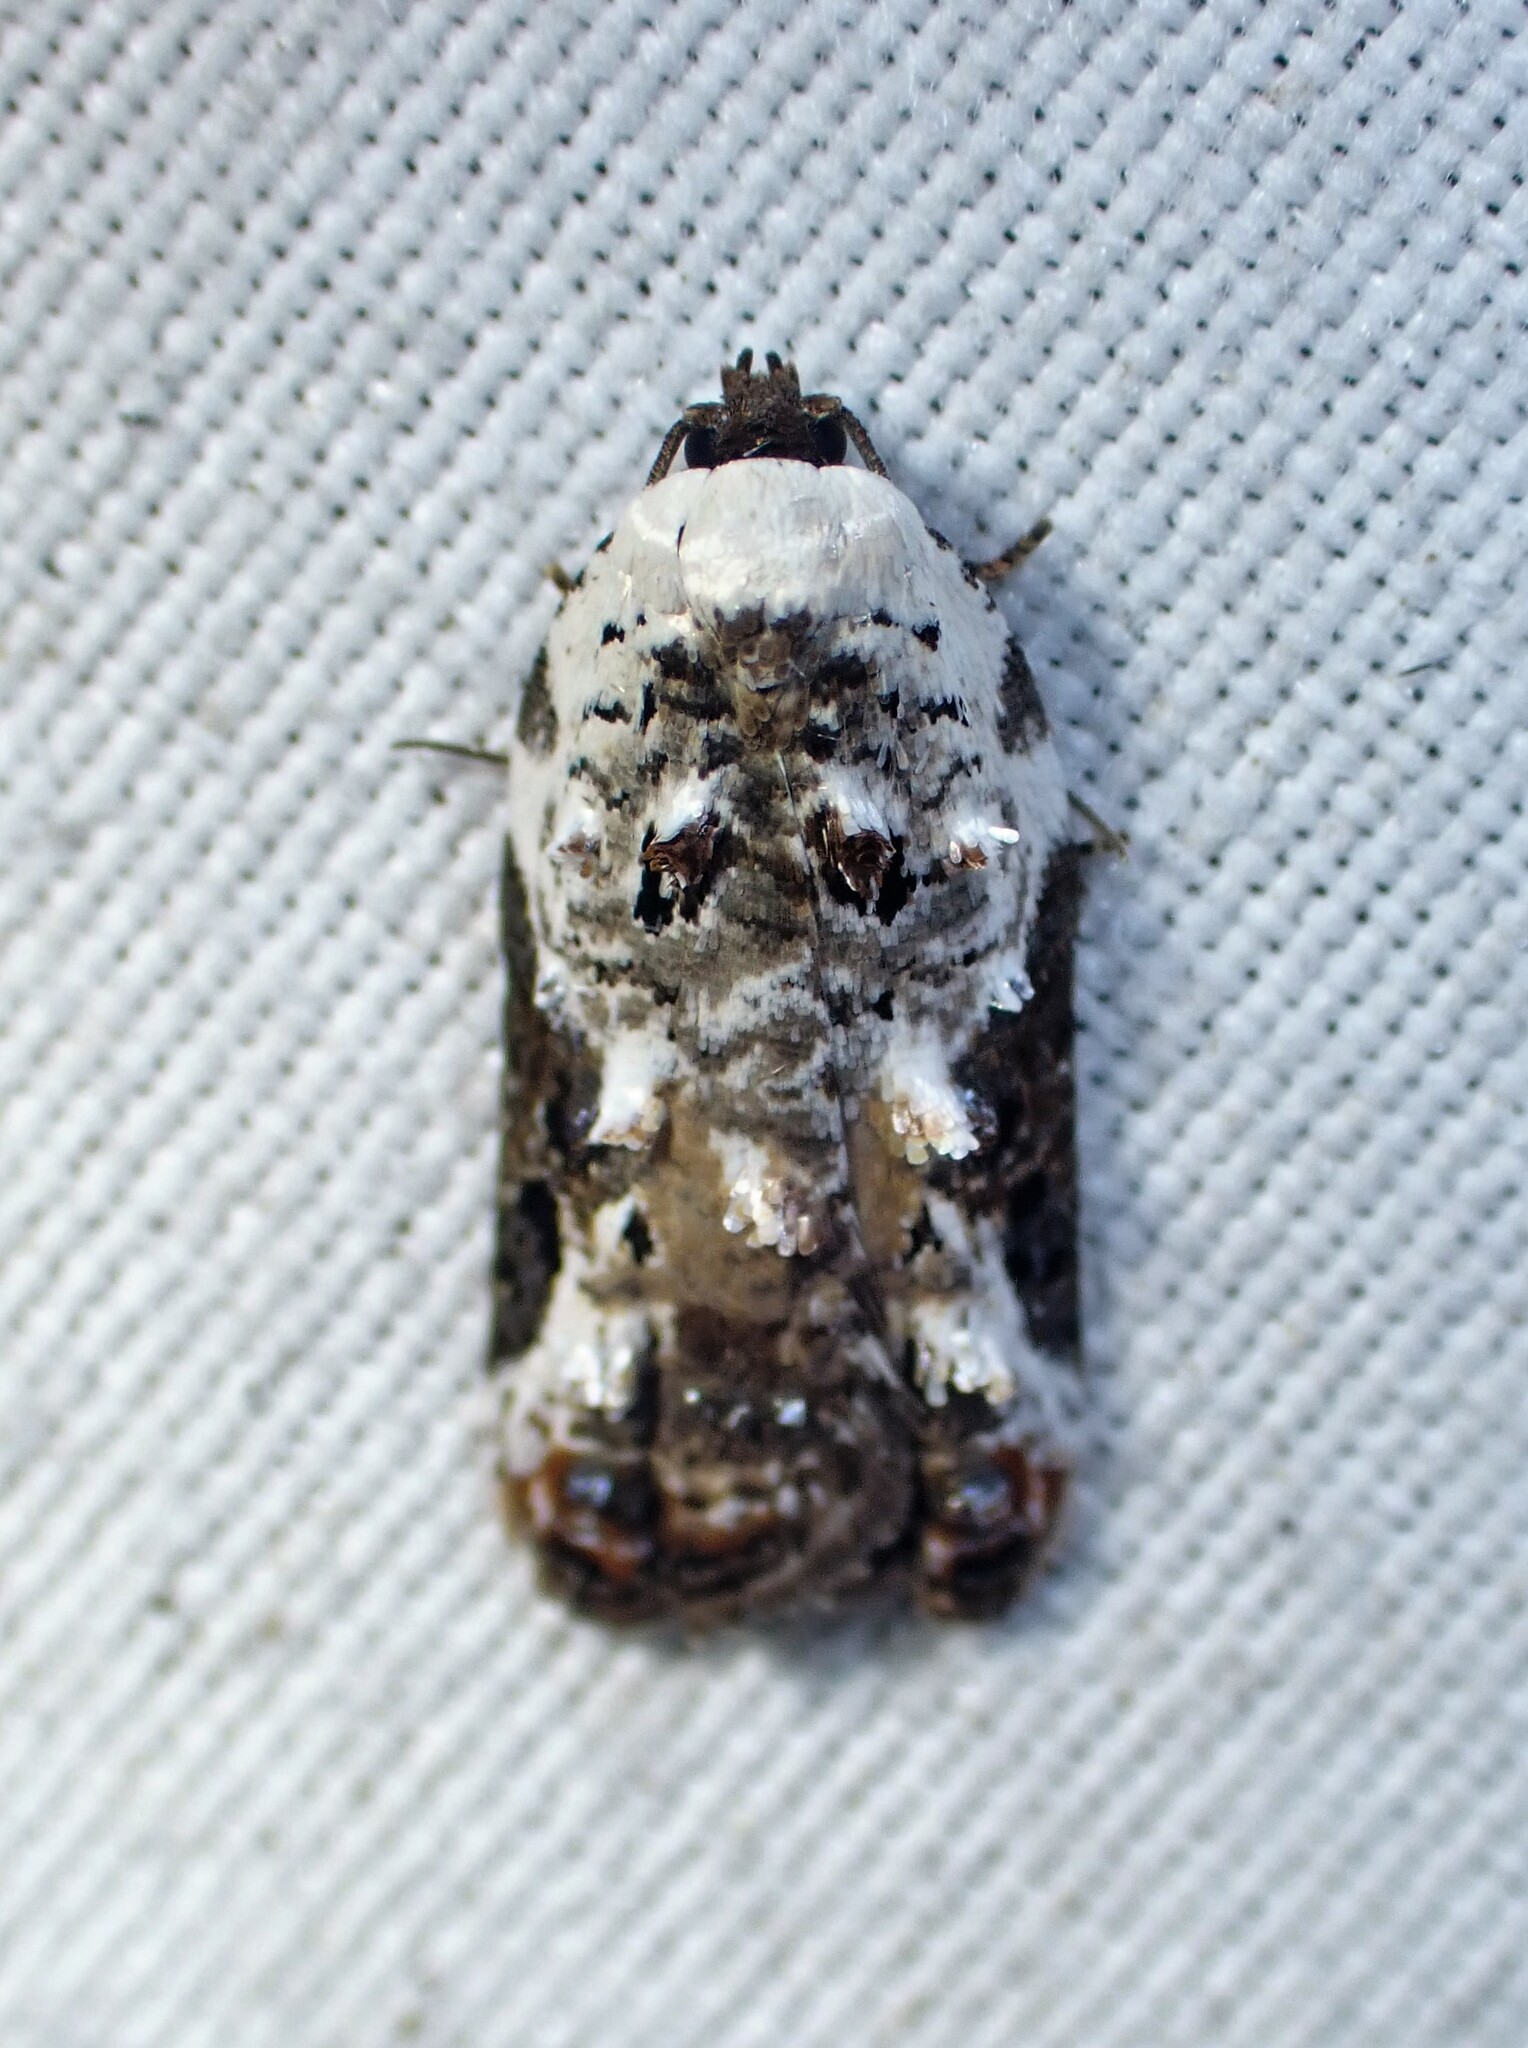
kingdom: Animalia
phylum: Arthropoda
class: Insecta
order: Lepidoptera
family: Tortricidae
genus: Acleris
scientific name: Acleris nivisellana
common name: Snowy-shouldered acleris moth
